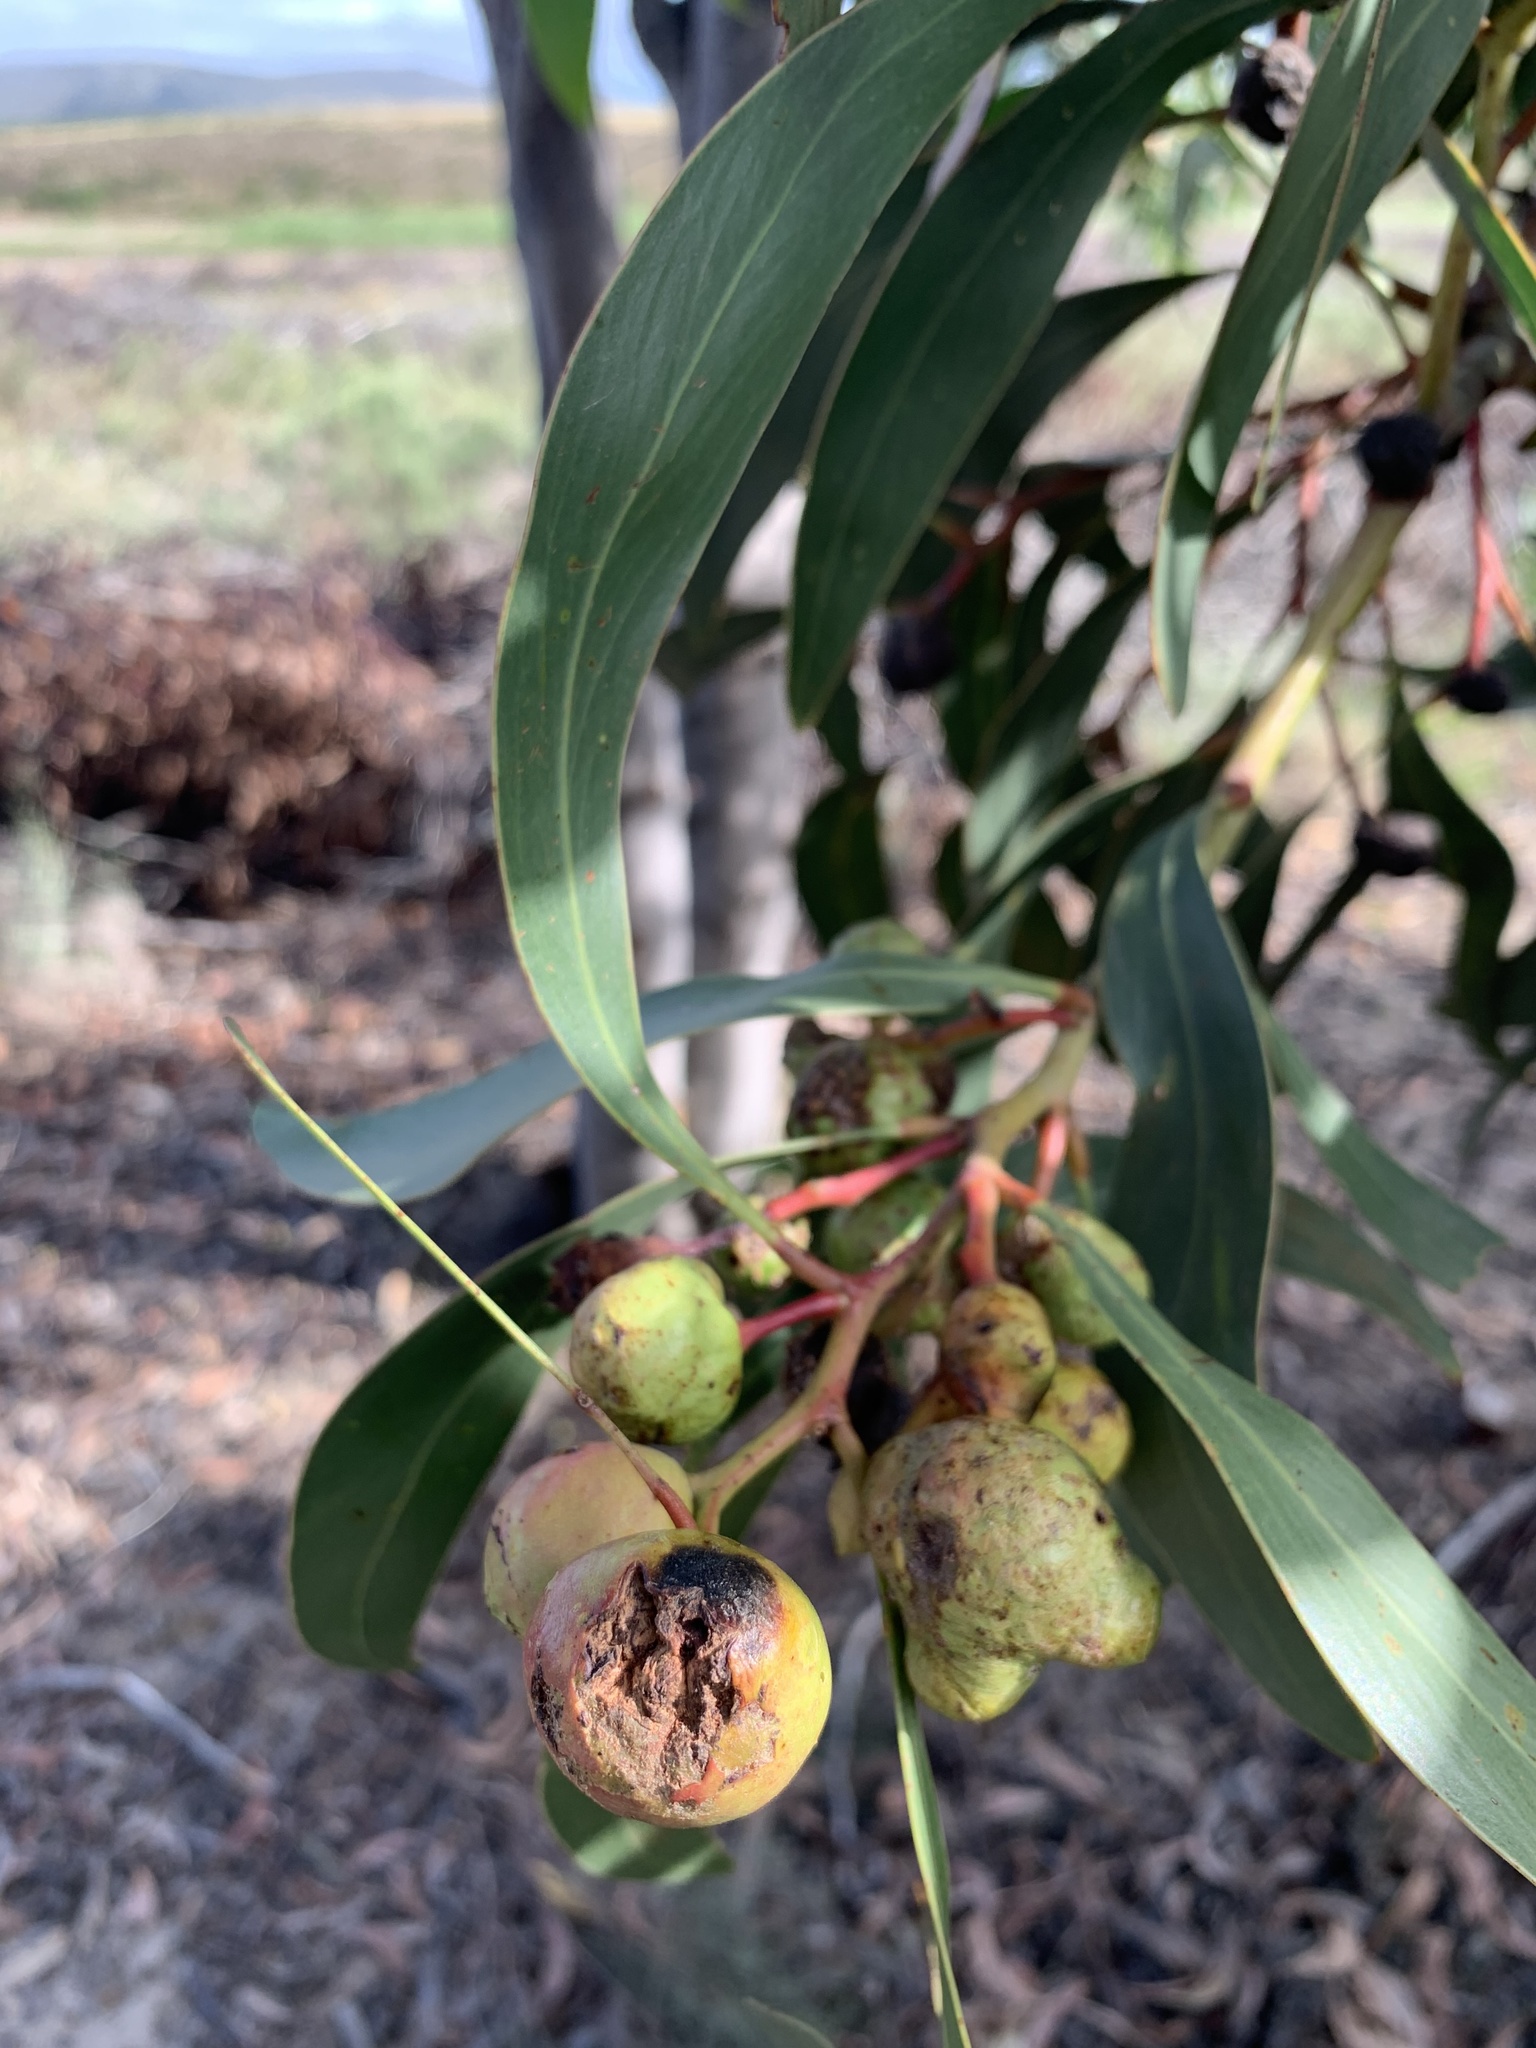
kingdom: Animalia
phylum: Arthropoda
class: Insecta
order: Hymenoptera
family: Pteromalidae
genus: Trichilogaster
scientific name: Trichilogaster signiventris
